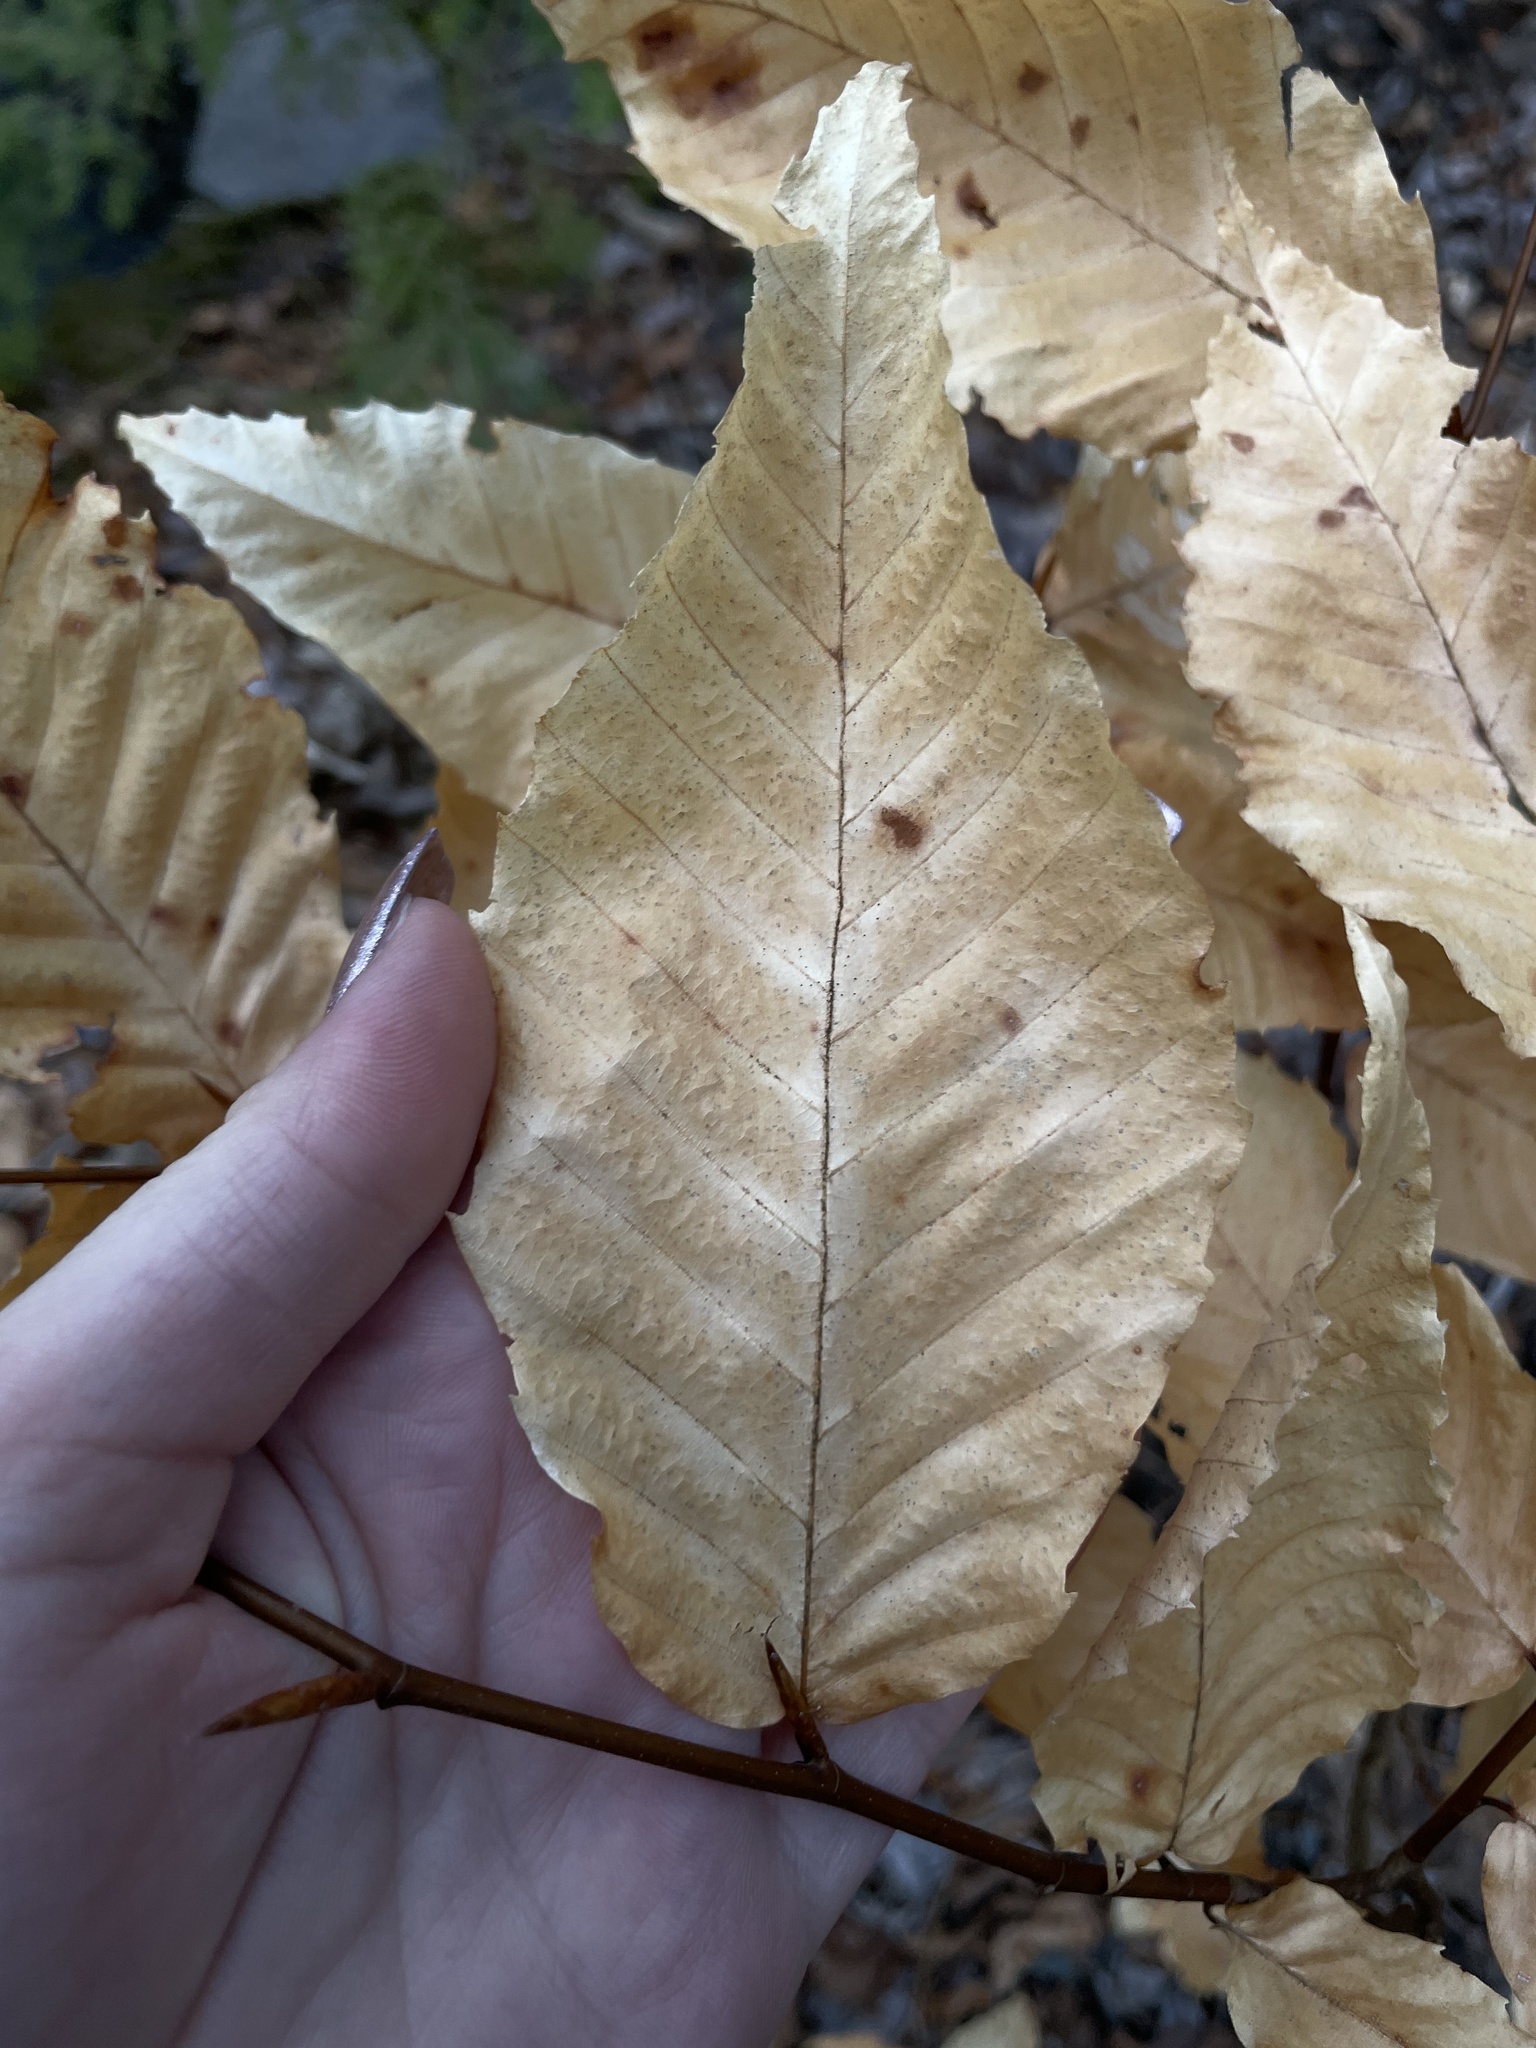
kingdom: Plantae
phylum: Tracheophyta
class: Magnoliopsida
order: Fagales
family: Fagaceae
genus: Fagus
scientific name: Fagus grandifolia
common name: American beech
